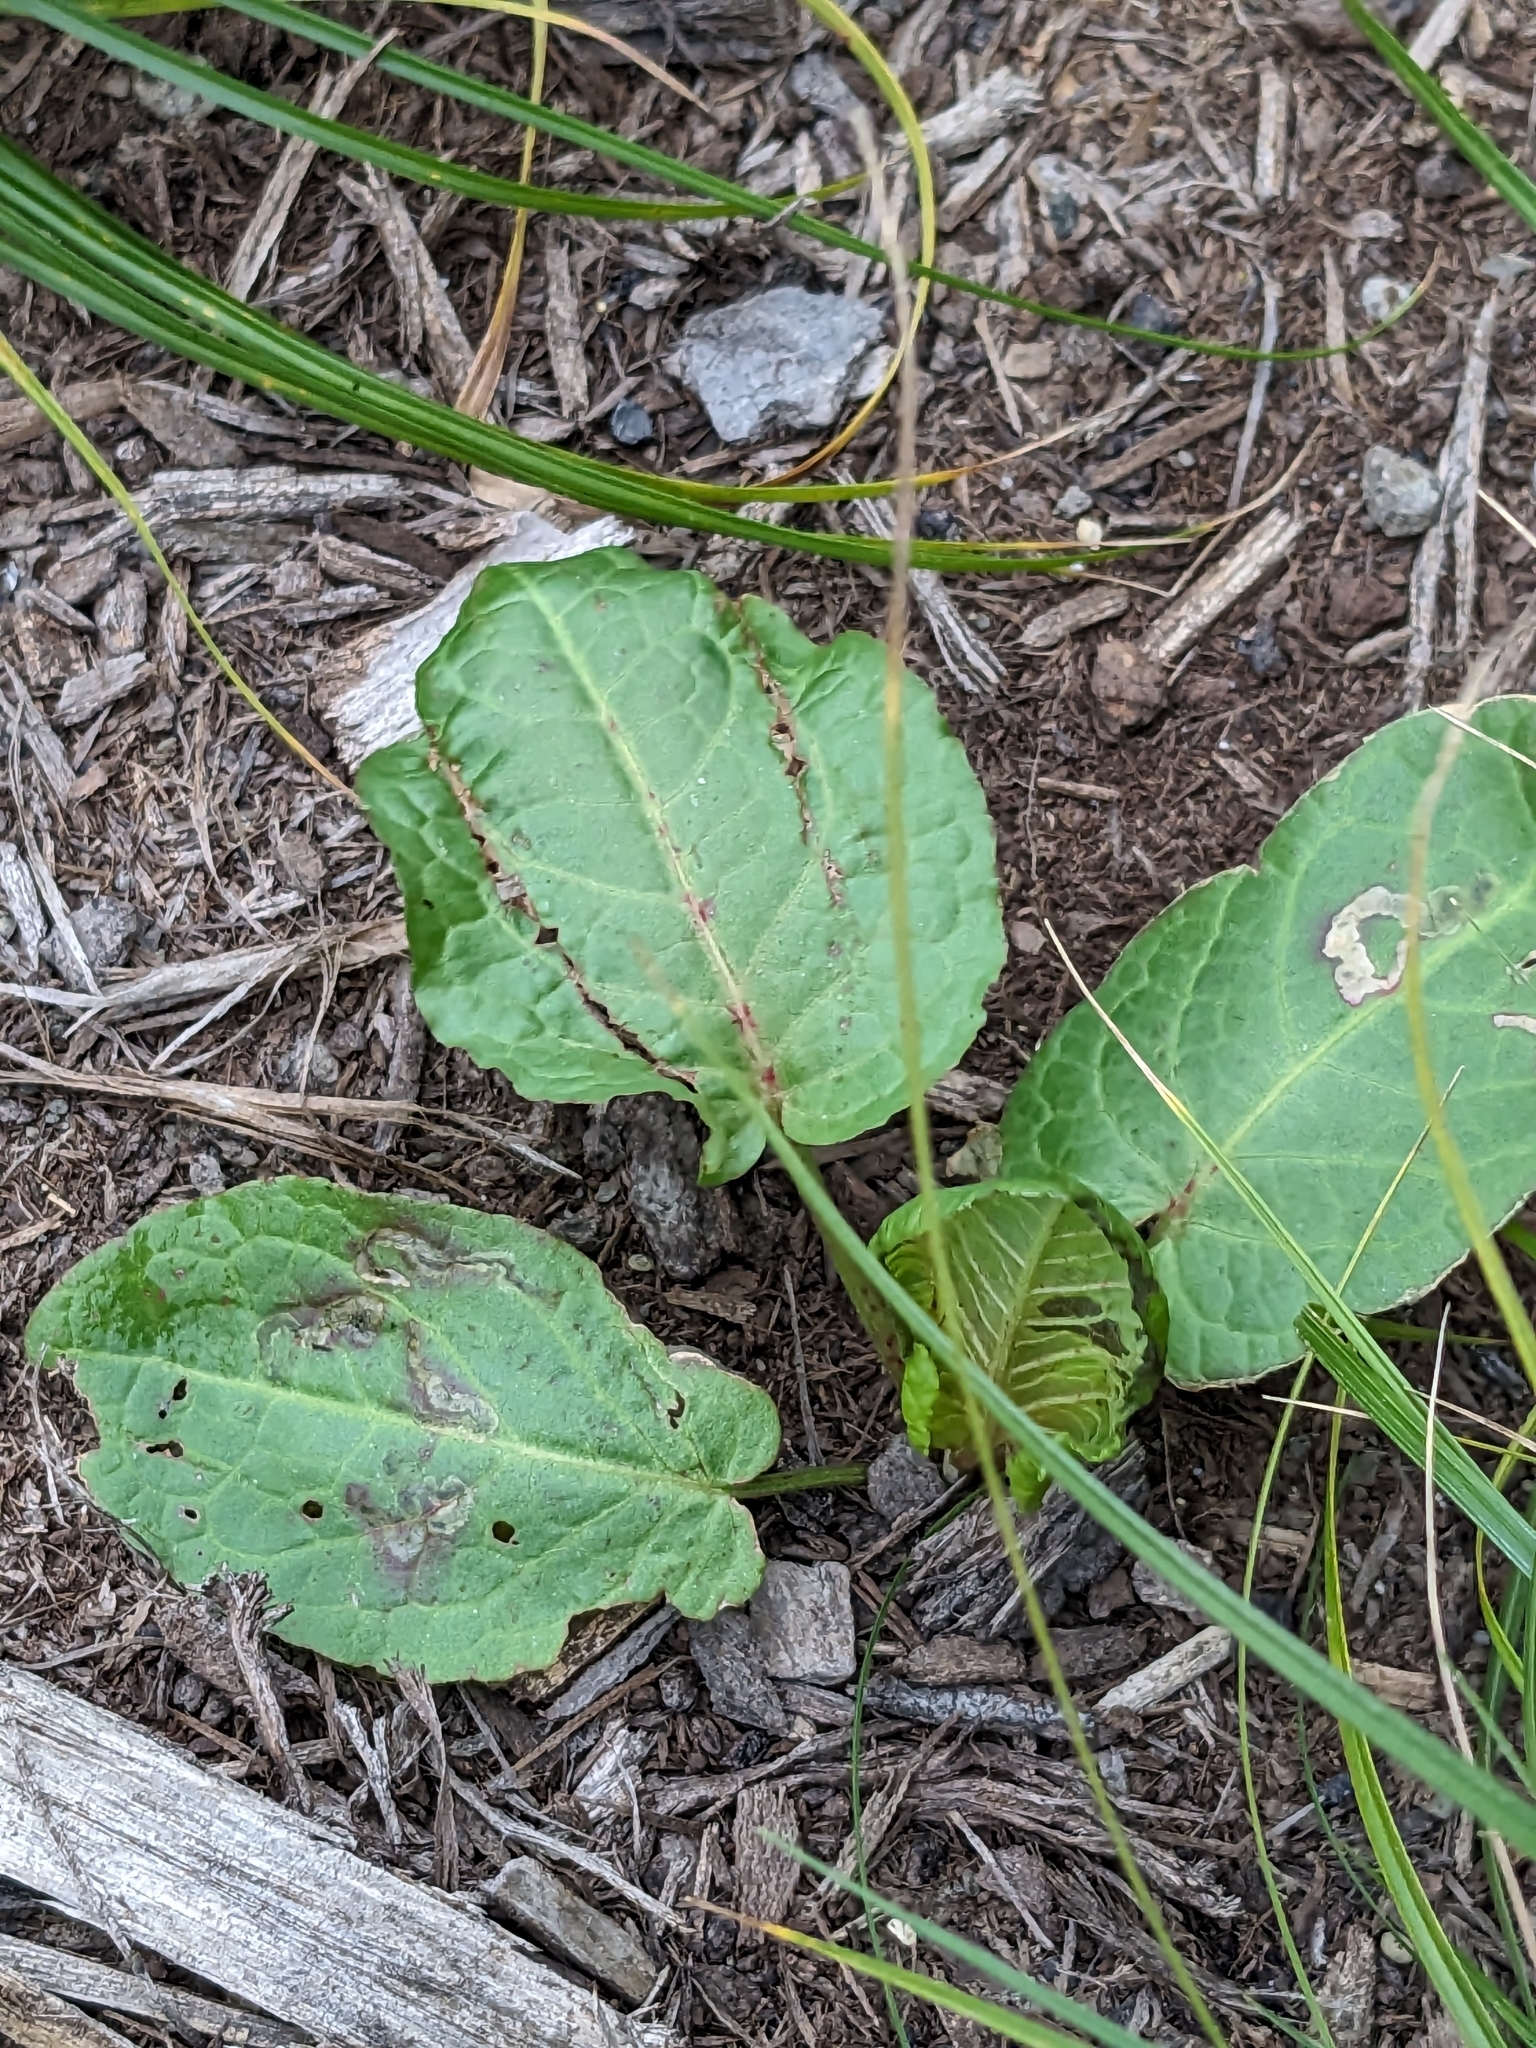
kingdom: Plantae
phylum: Tracheophyta
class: Magnoliopsida
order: Caryophyllales
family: Polygonaceae
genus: Rumex
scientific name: Rumex obtusifolius
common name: Bitter dock
